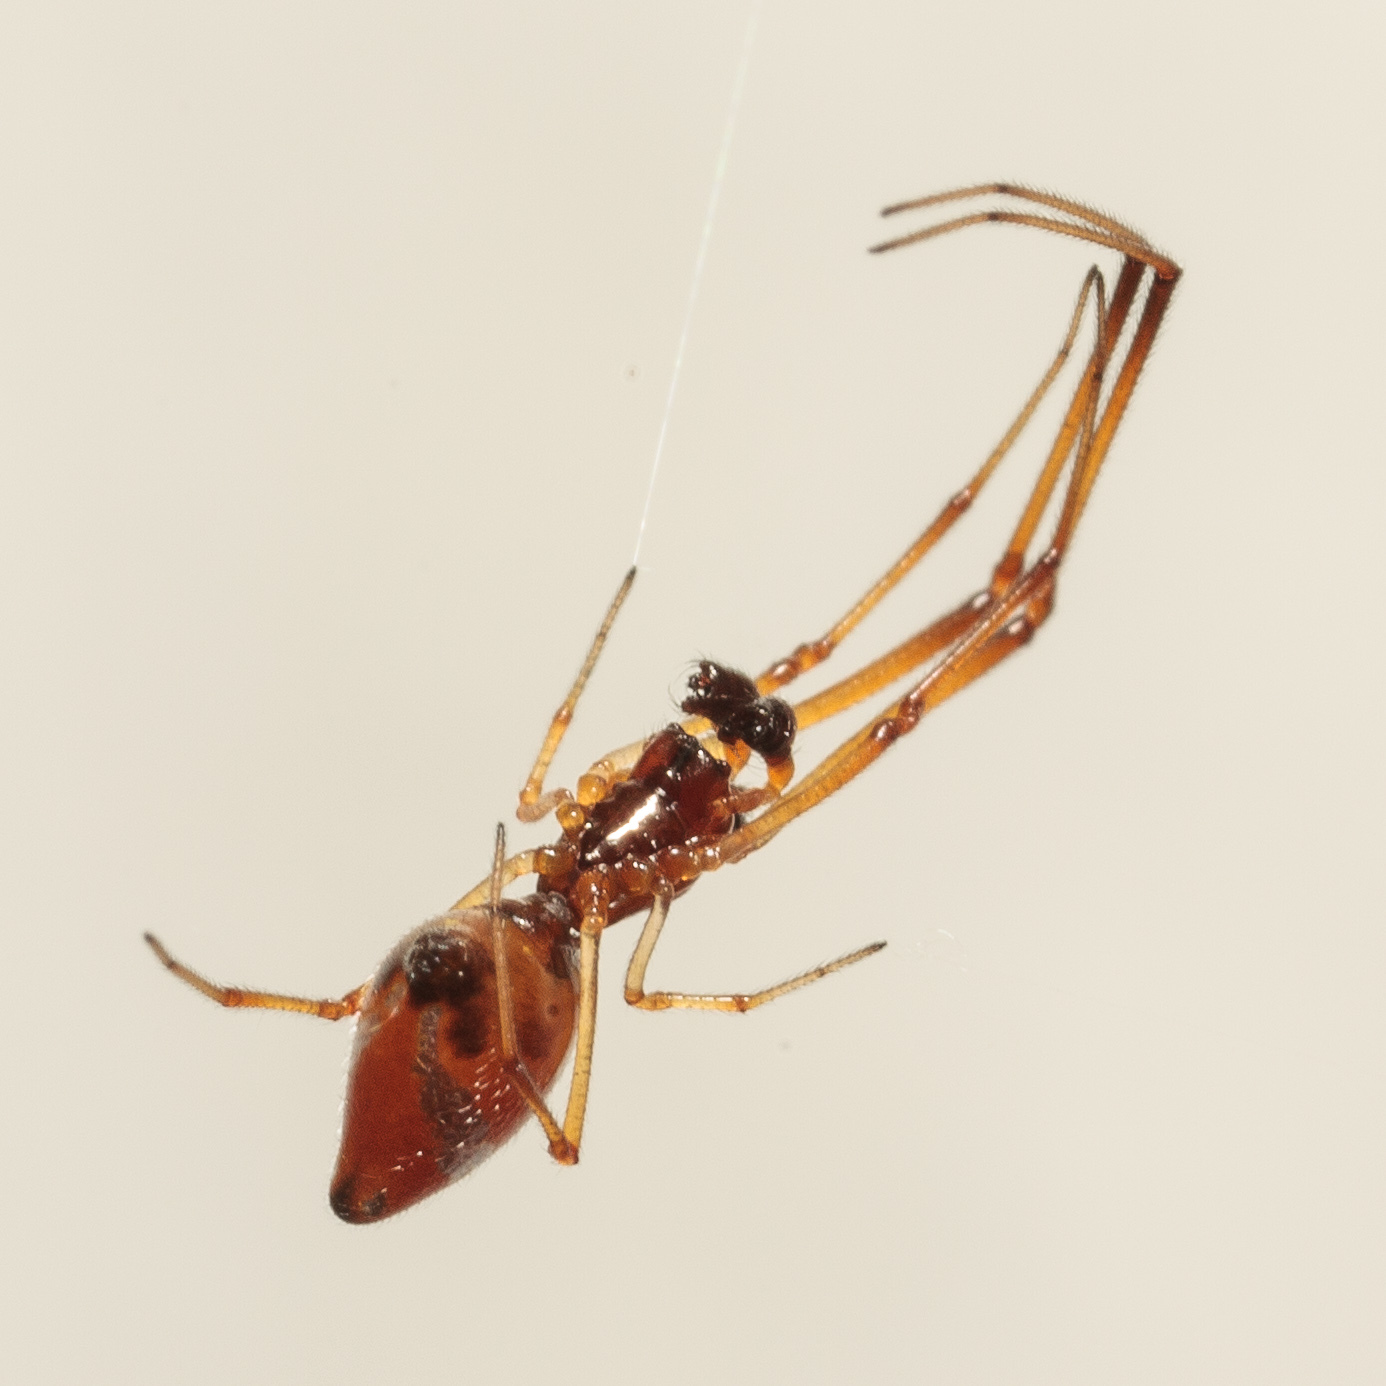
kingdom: Animalia
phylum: Arthropoda
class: Arachnida
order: Araneae
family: Theridiidae
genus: Argyrodes
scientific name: Argyrodes elevatus
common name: Cobweb spiders
